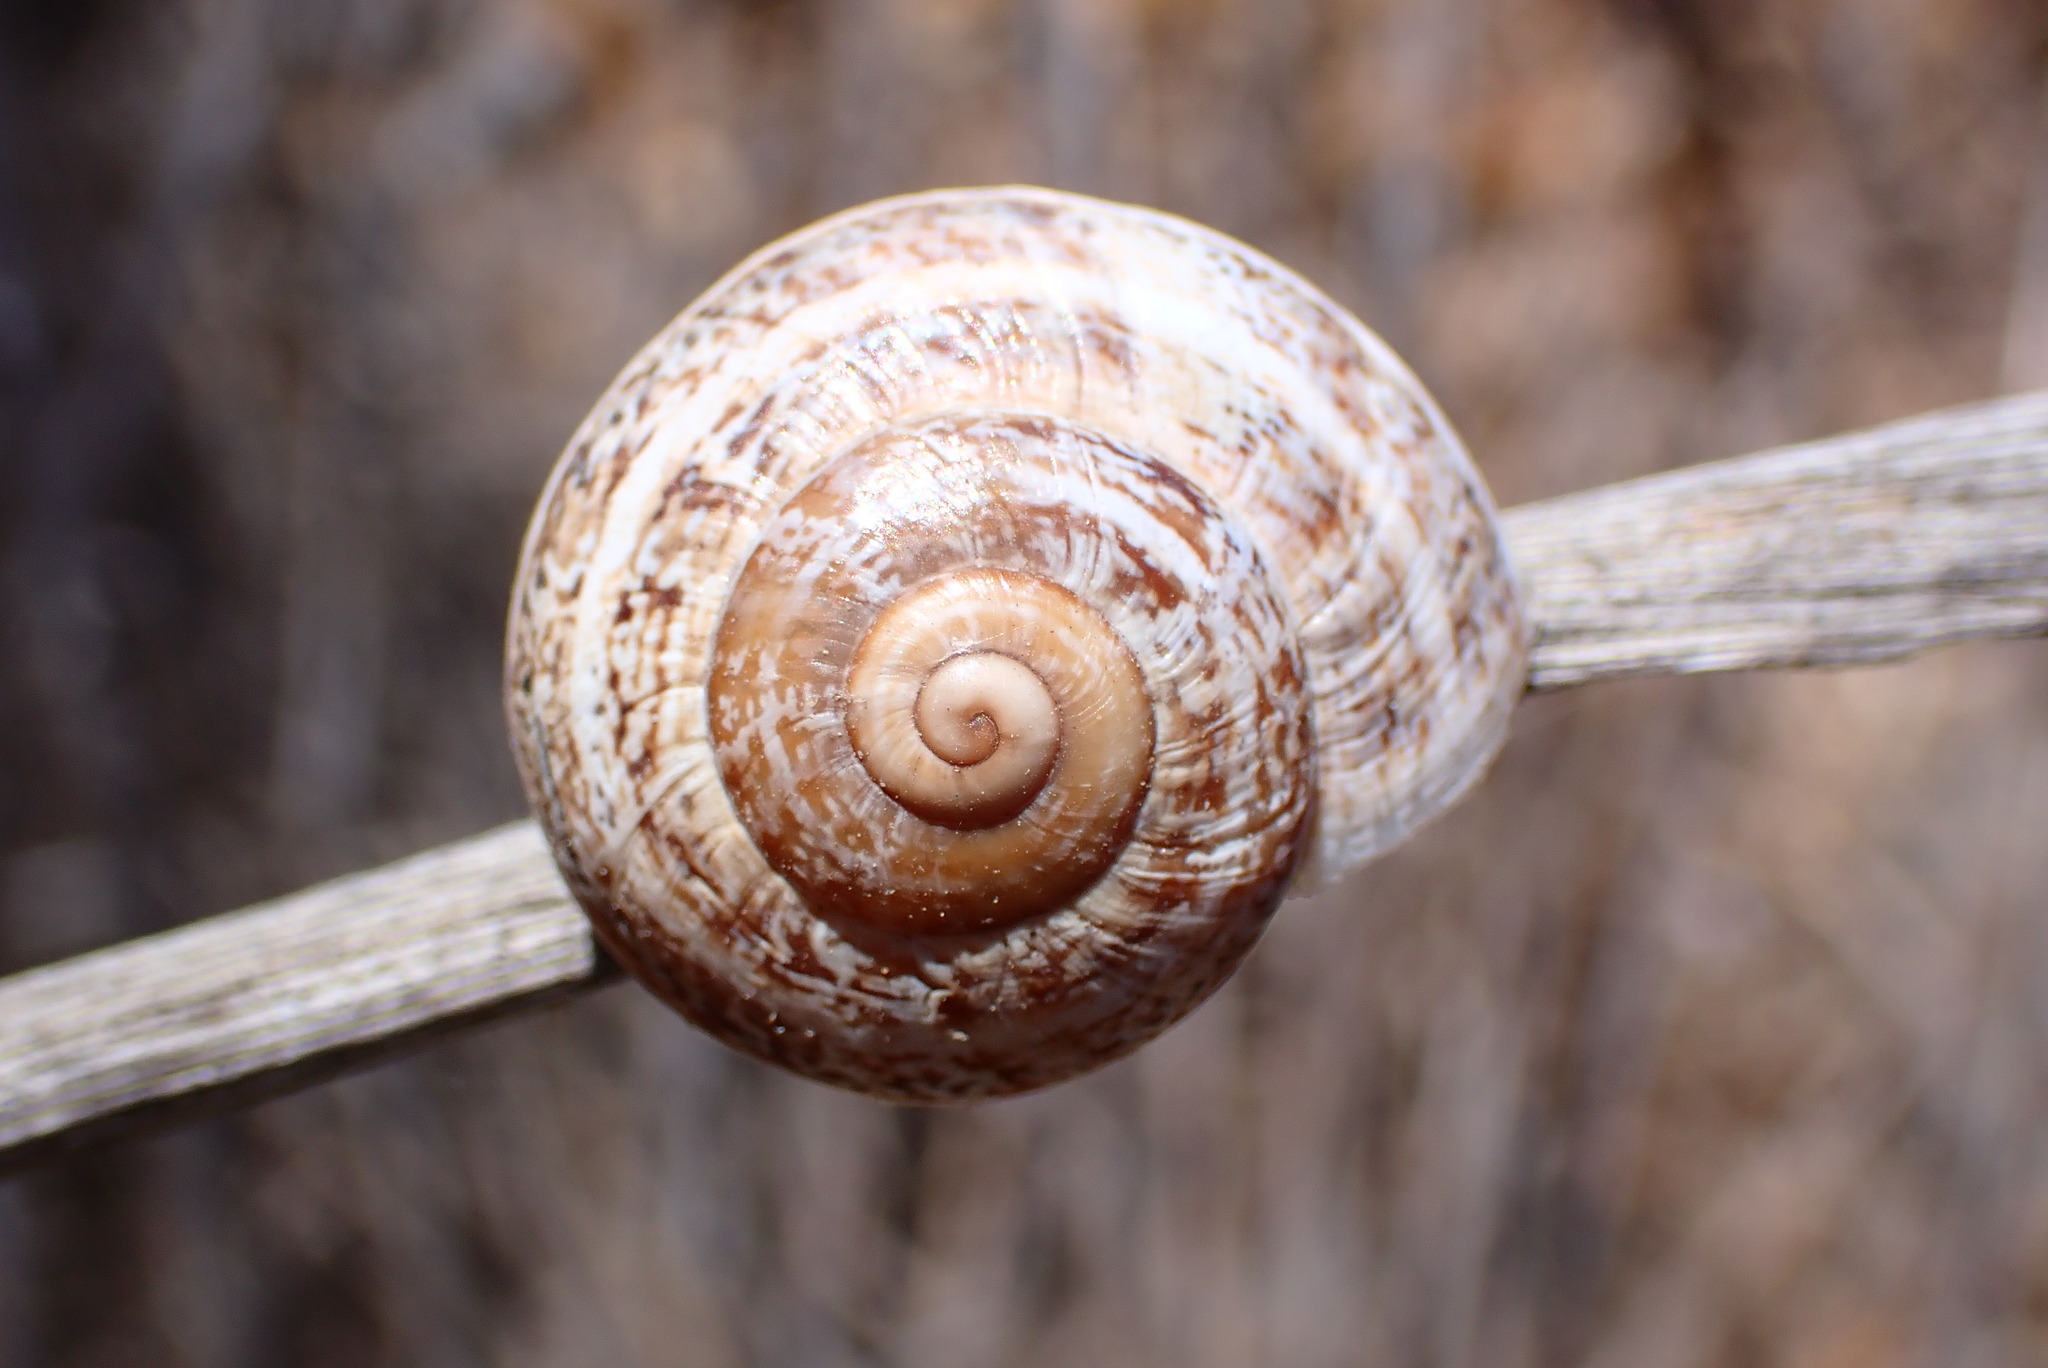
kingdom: Animalia
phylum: Mollusca
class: Gastropoda
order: Stylommatophora
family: Helicidae
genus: Otala
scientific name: Otala lactea
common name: Milk snail
